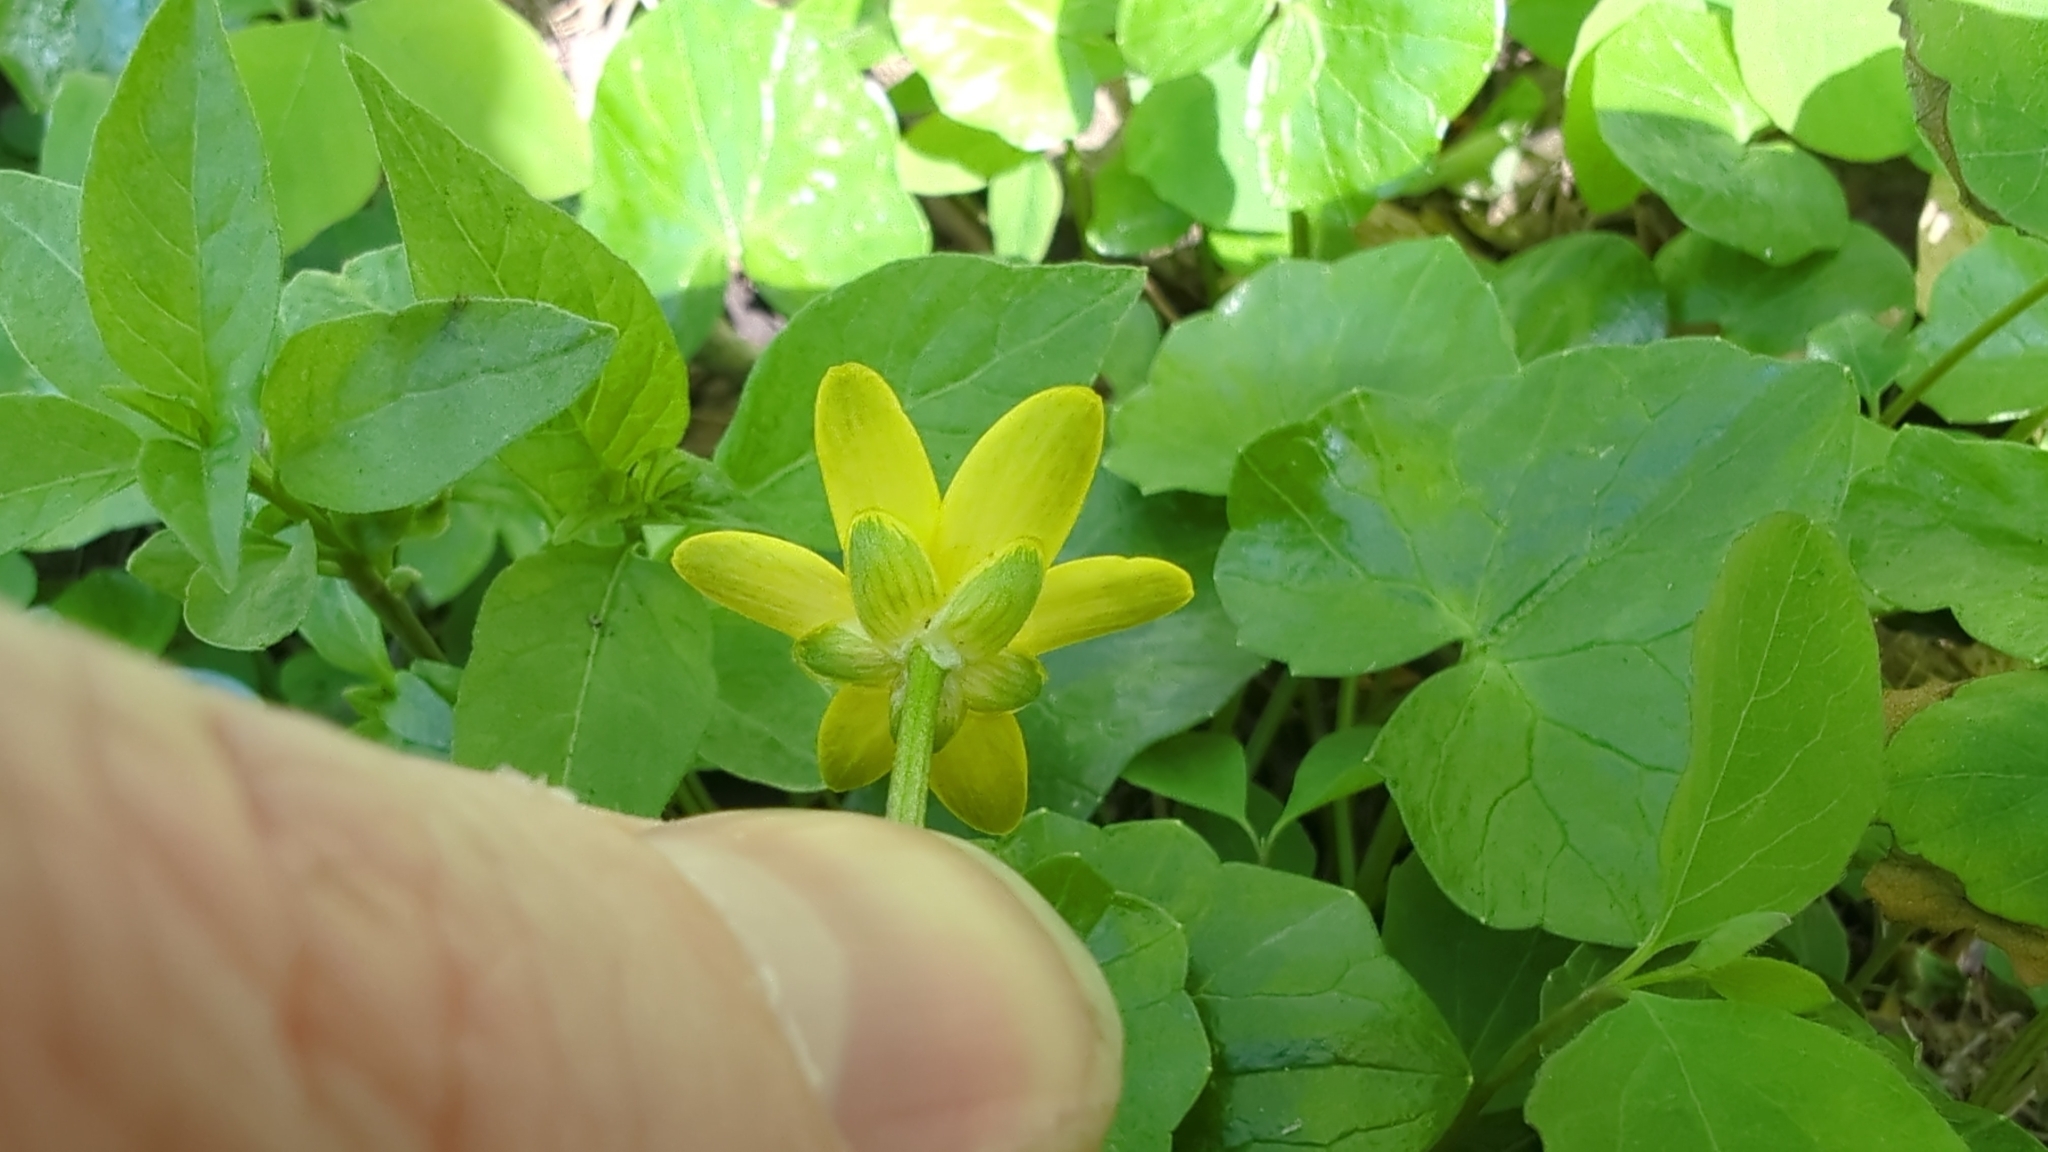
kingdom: Plantae
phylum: Tracheophyta
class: Magnoliopsida
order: Ranunculales
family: Ranunculaceae
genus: Ficaria
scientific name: Ficaria verna
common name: Lesser celandine
